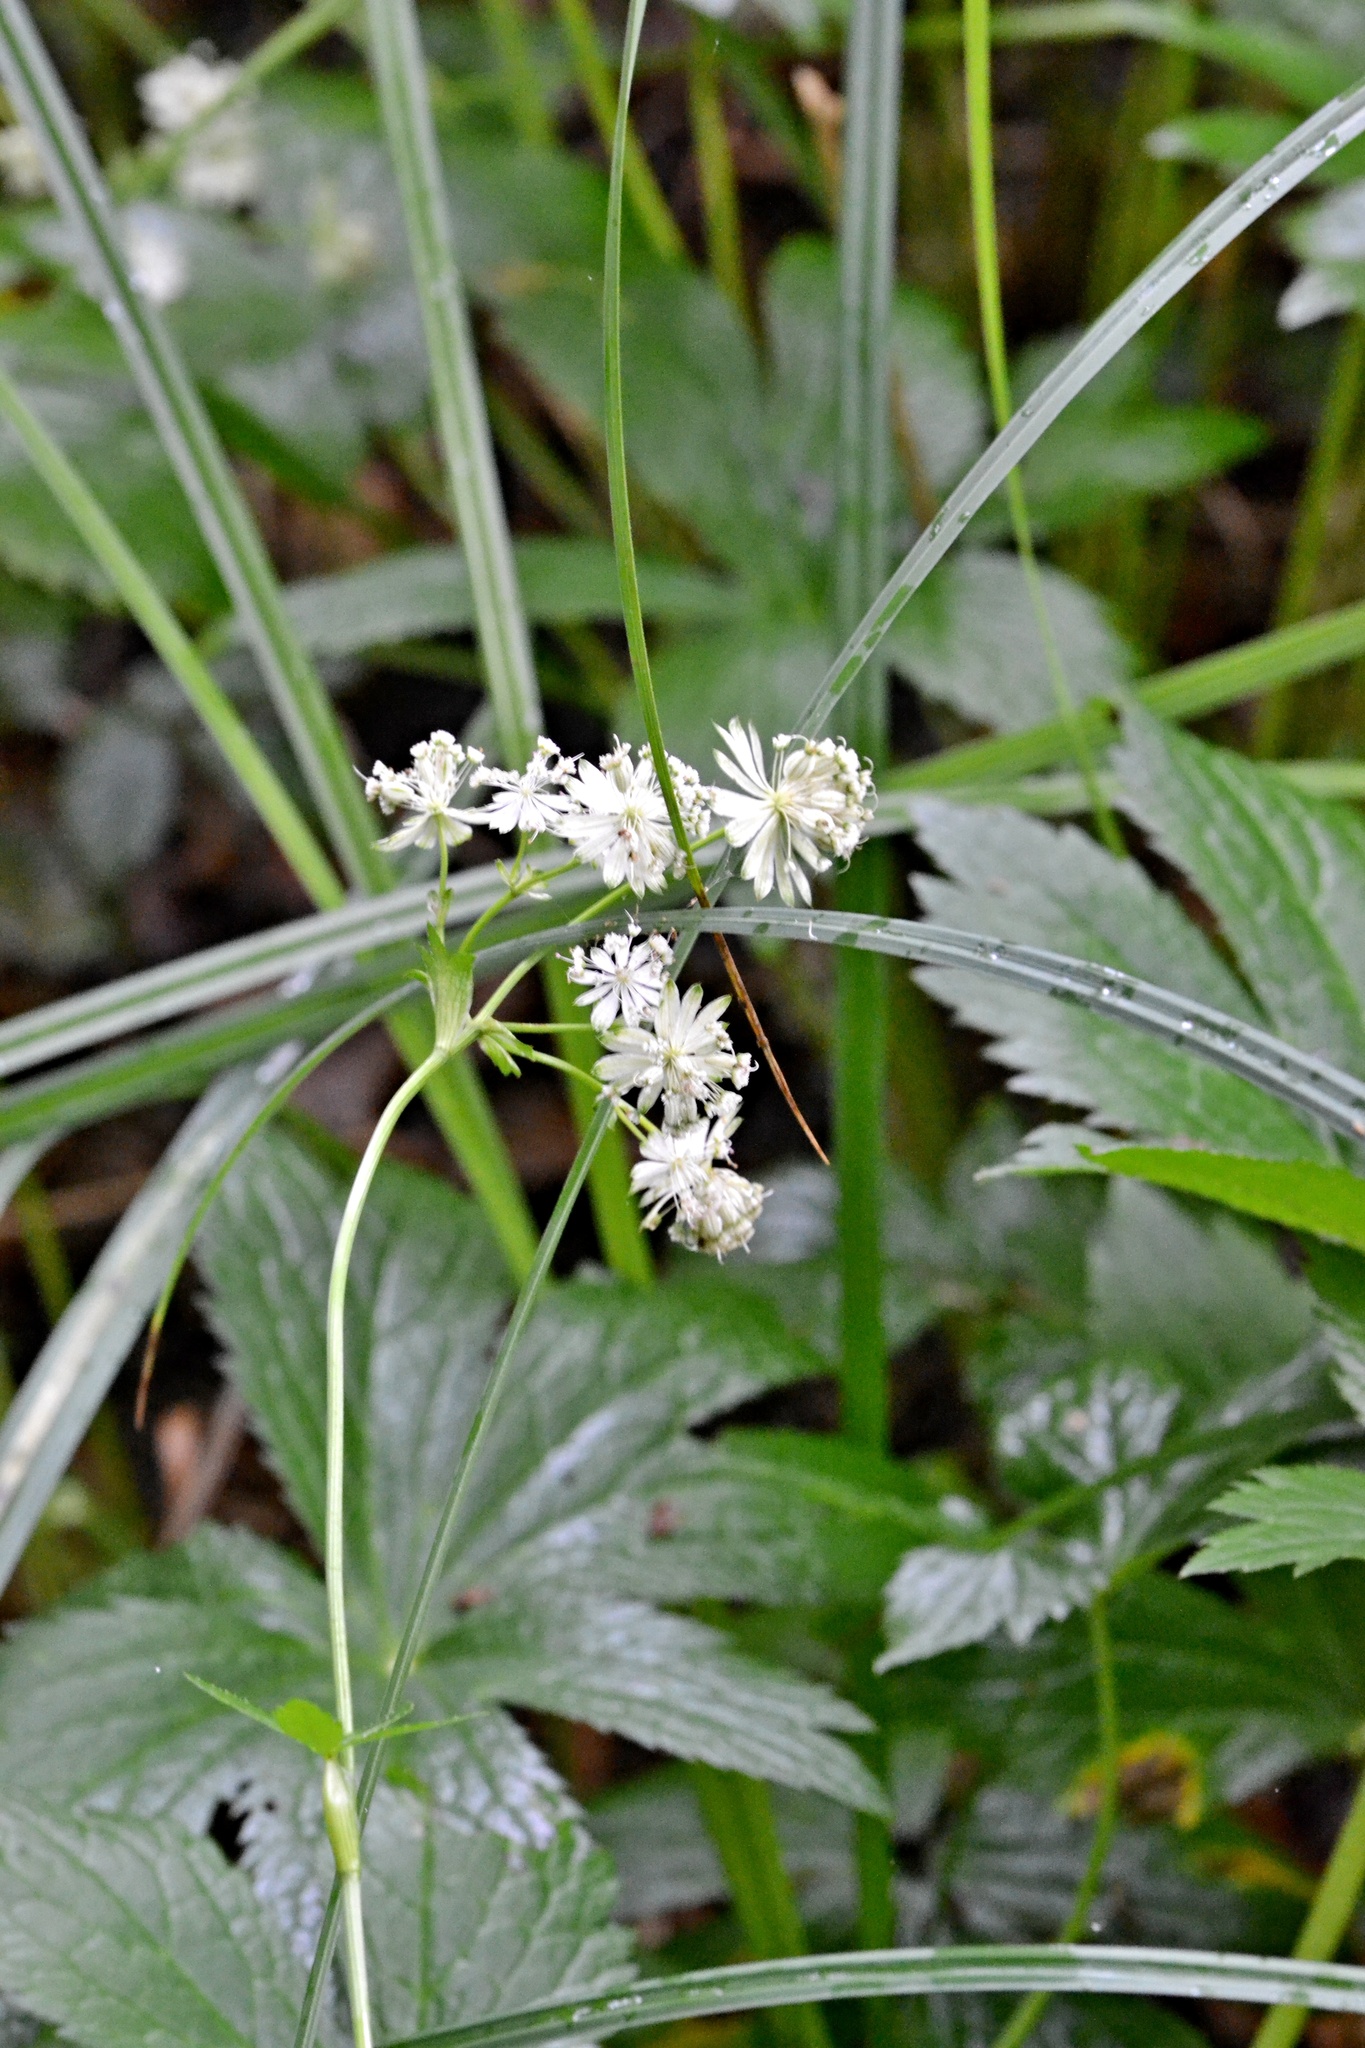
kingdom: Plantae
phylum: Tracheophyta
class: Magnoliopsida
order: Apiales
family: Apiaceae
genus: Astrantia
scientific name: Astrantia major
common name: Greater masterwort
